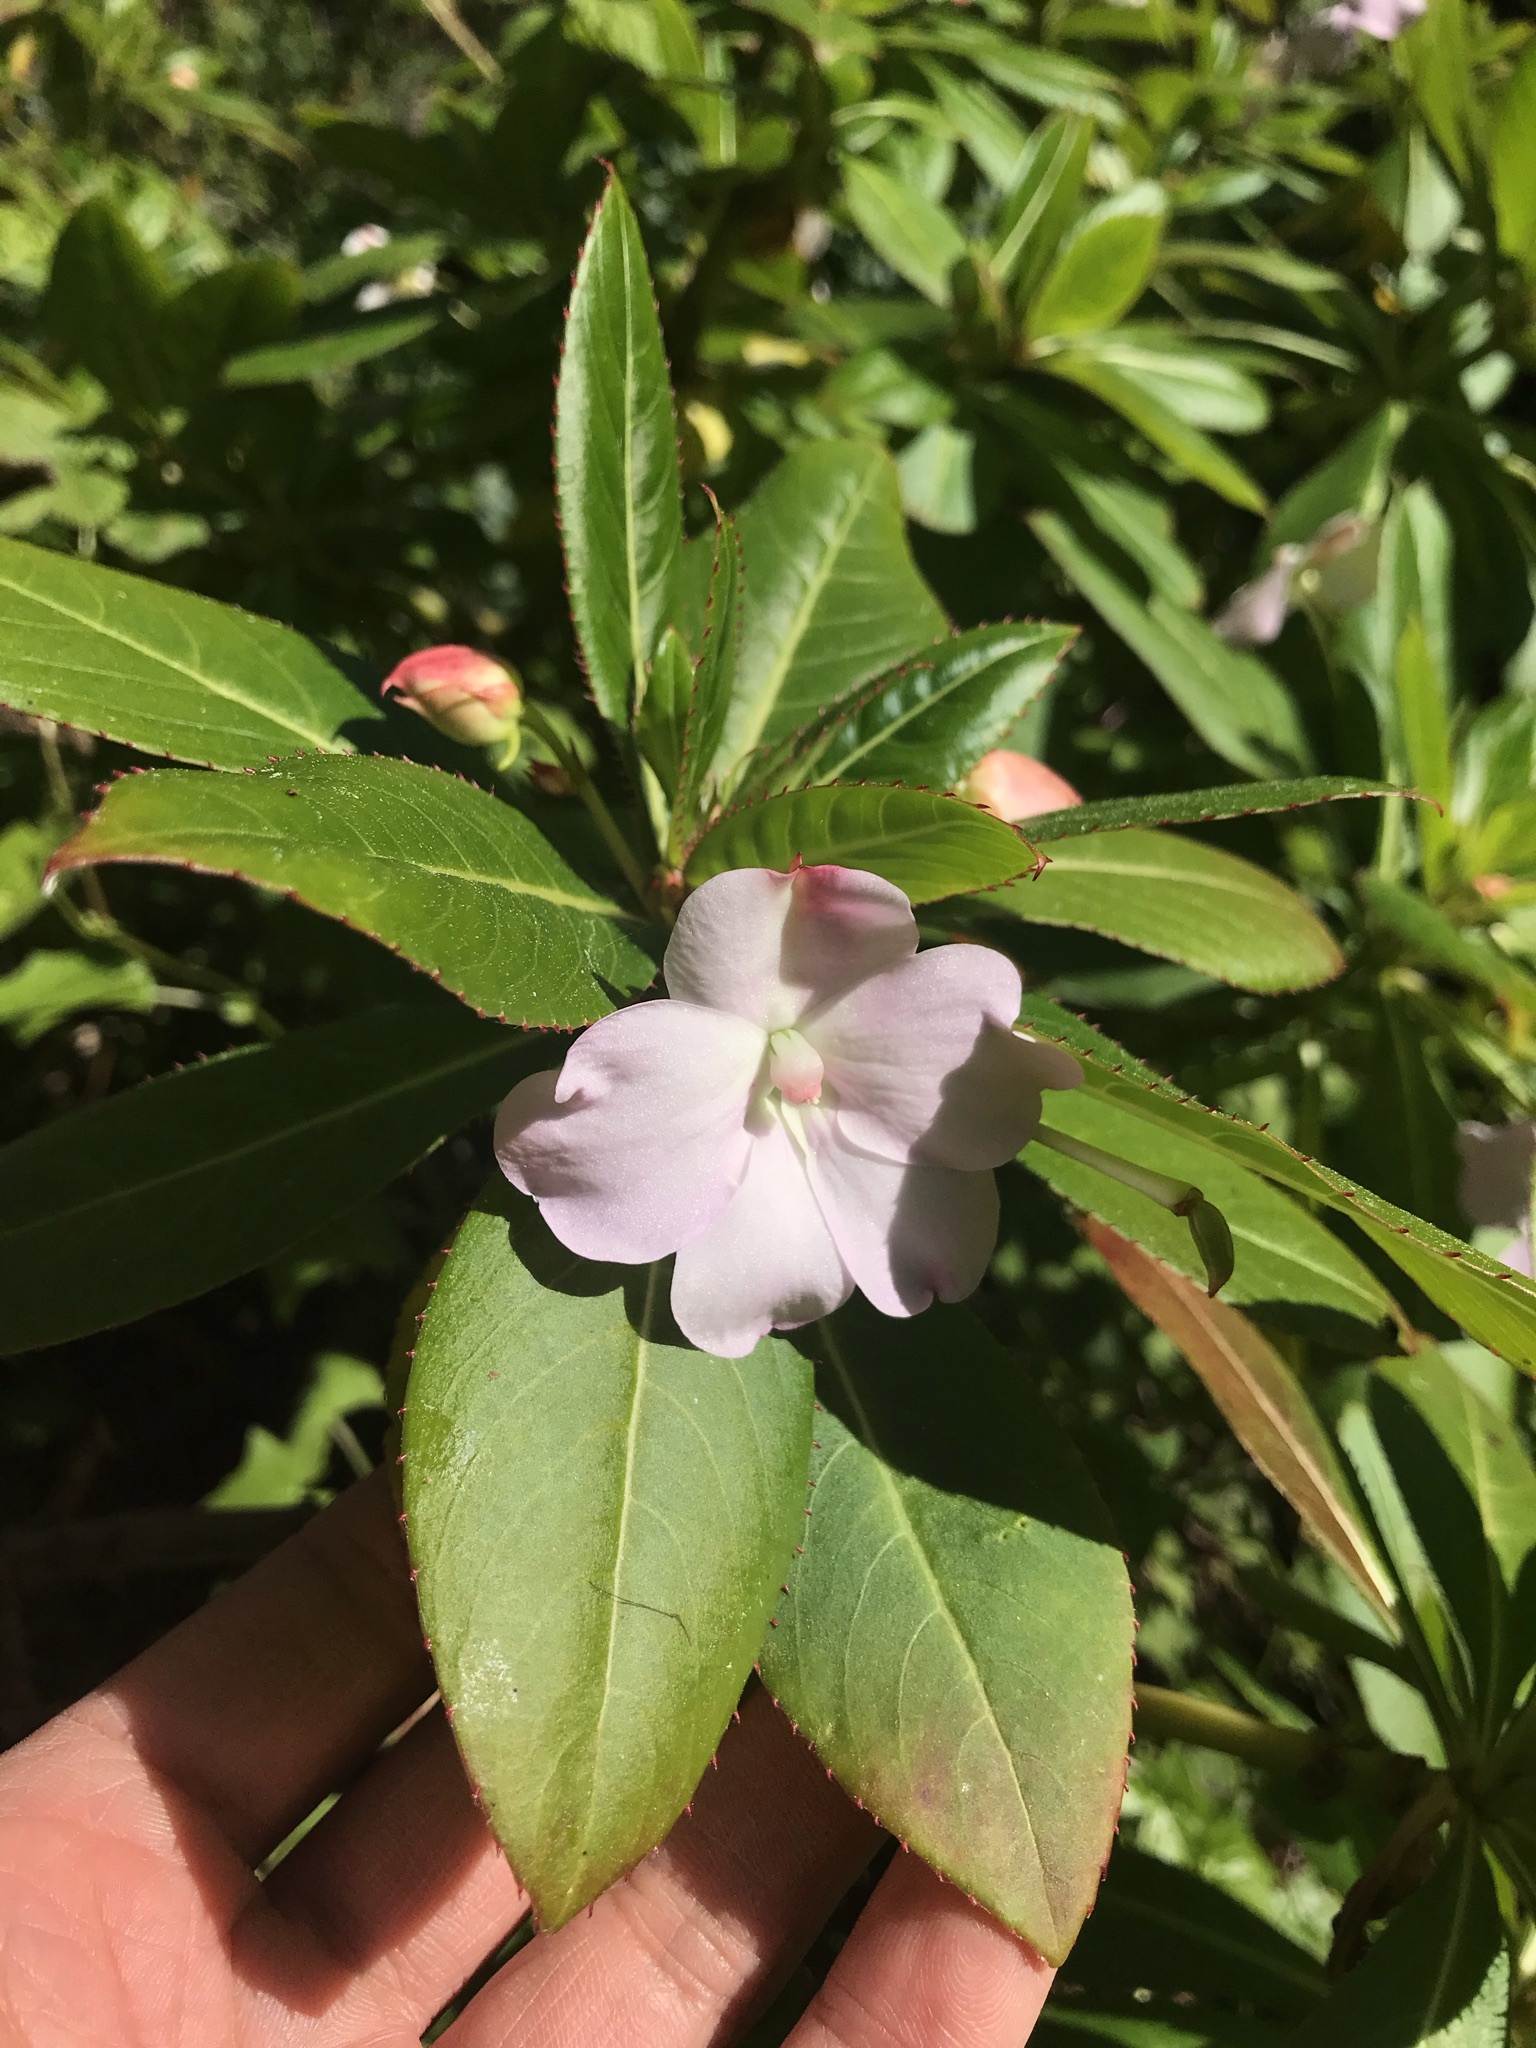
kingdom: Plantae
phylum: Tracheophyta
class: Magnoliopsida
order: Ericales
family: Balsaminaceae
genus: Impatiens
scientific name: Impatiens sodenii
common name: Oliver's touch-me-not
